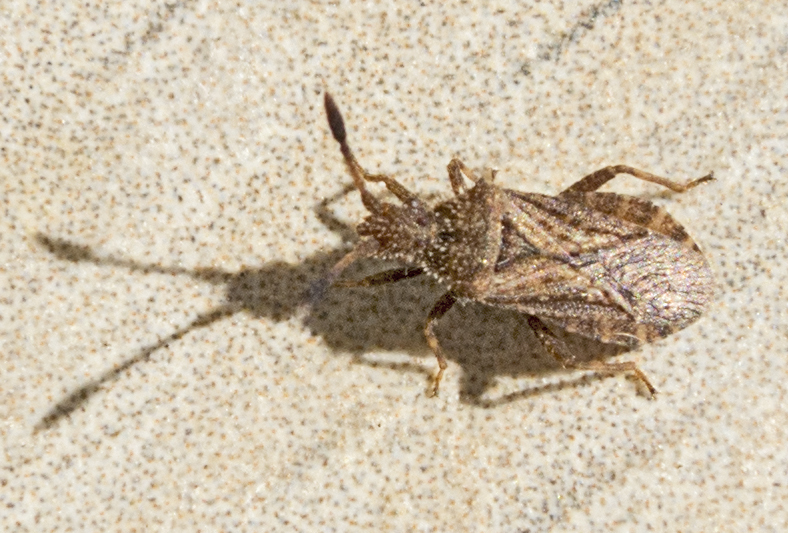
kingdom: Animalia
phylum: Arthropoda
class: Insecta
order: Hemiptera
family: Coreidae
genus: Strobilotoma
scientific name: Strobilotoma typhaecornis
